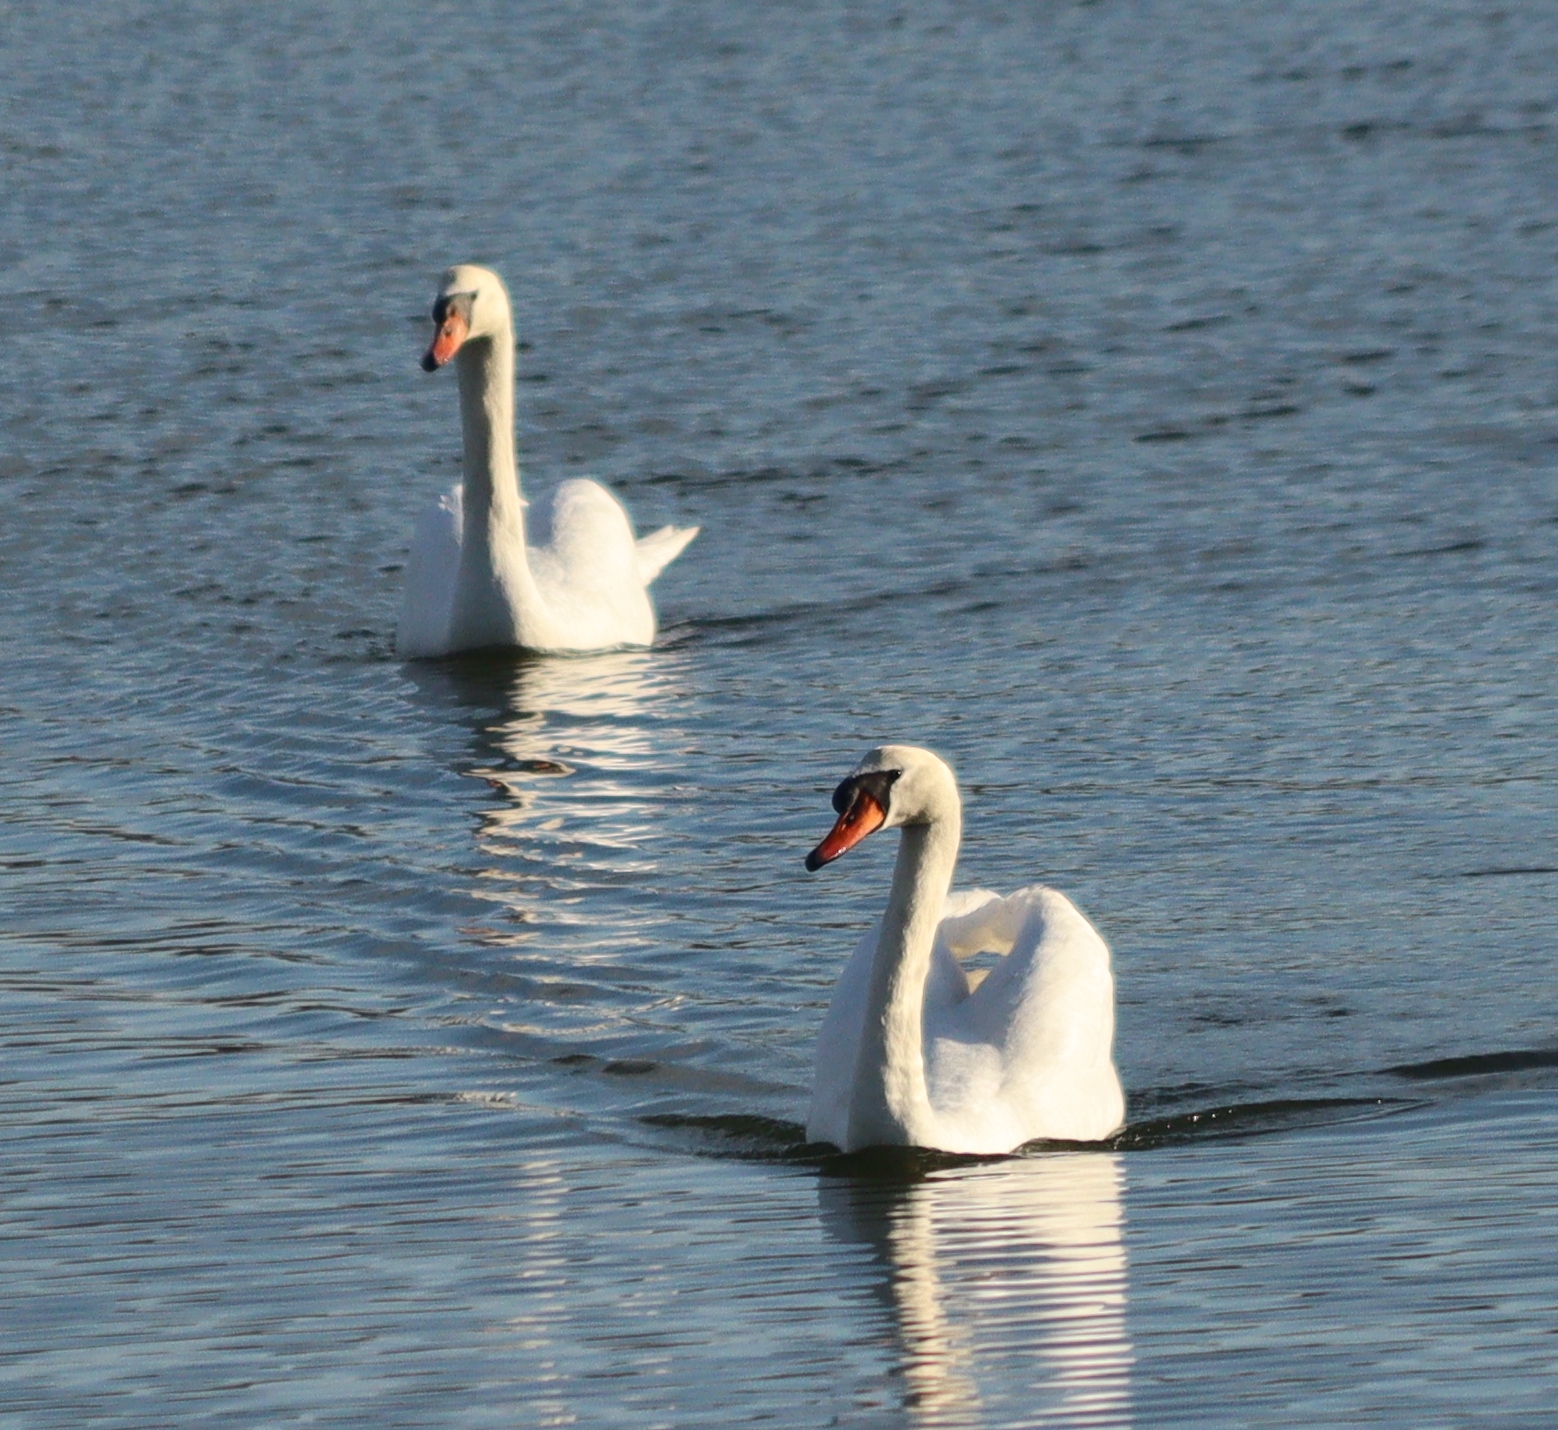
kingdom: Animalia
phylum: Chordata
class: Aves
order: Anseriformes
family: Anatidae
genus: Cygnus
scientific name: Cygnus olor
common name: Mute swan
